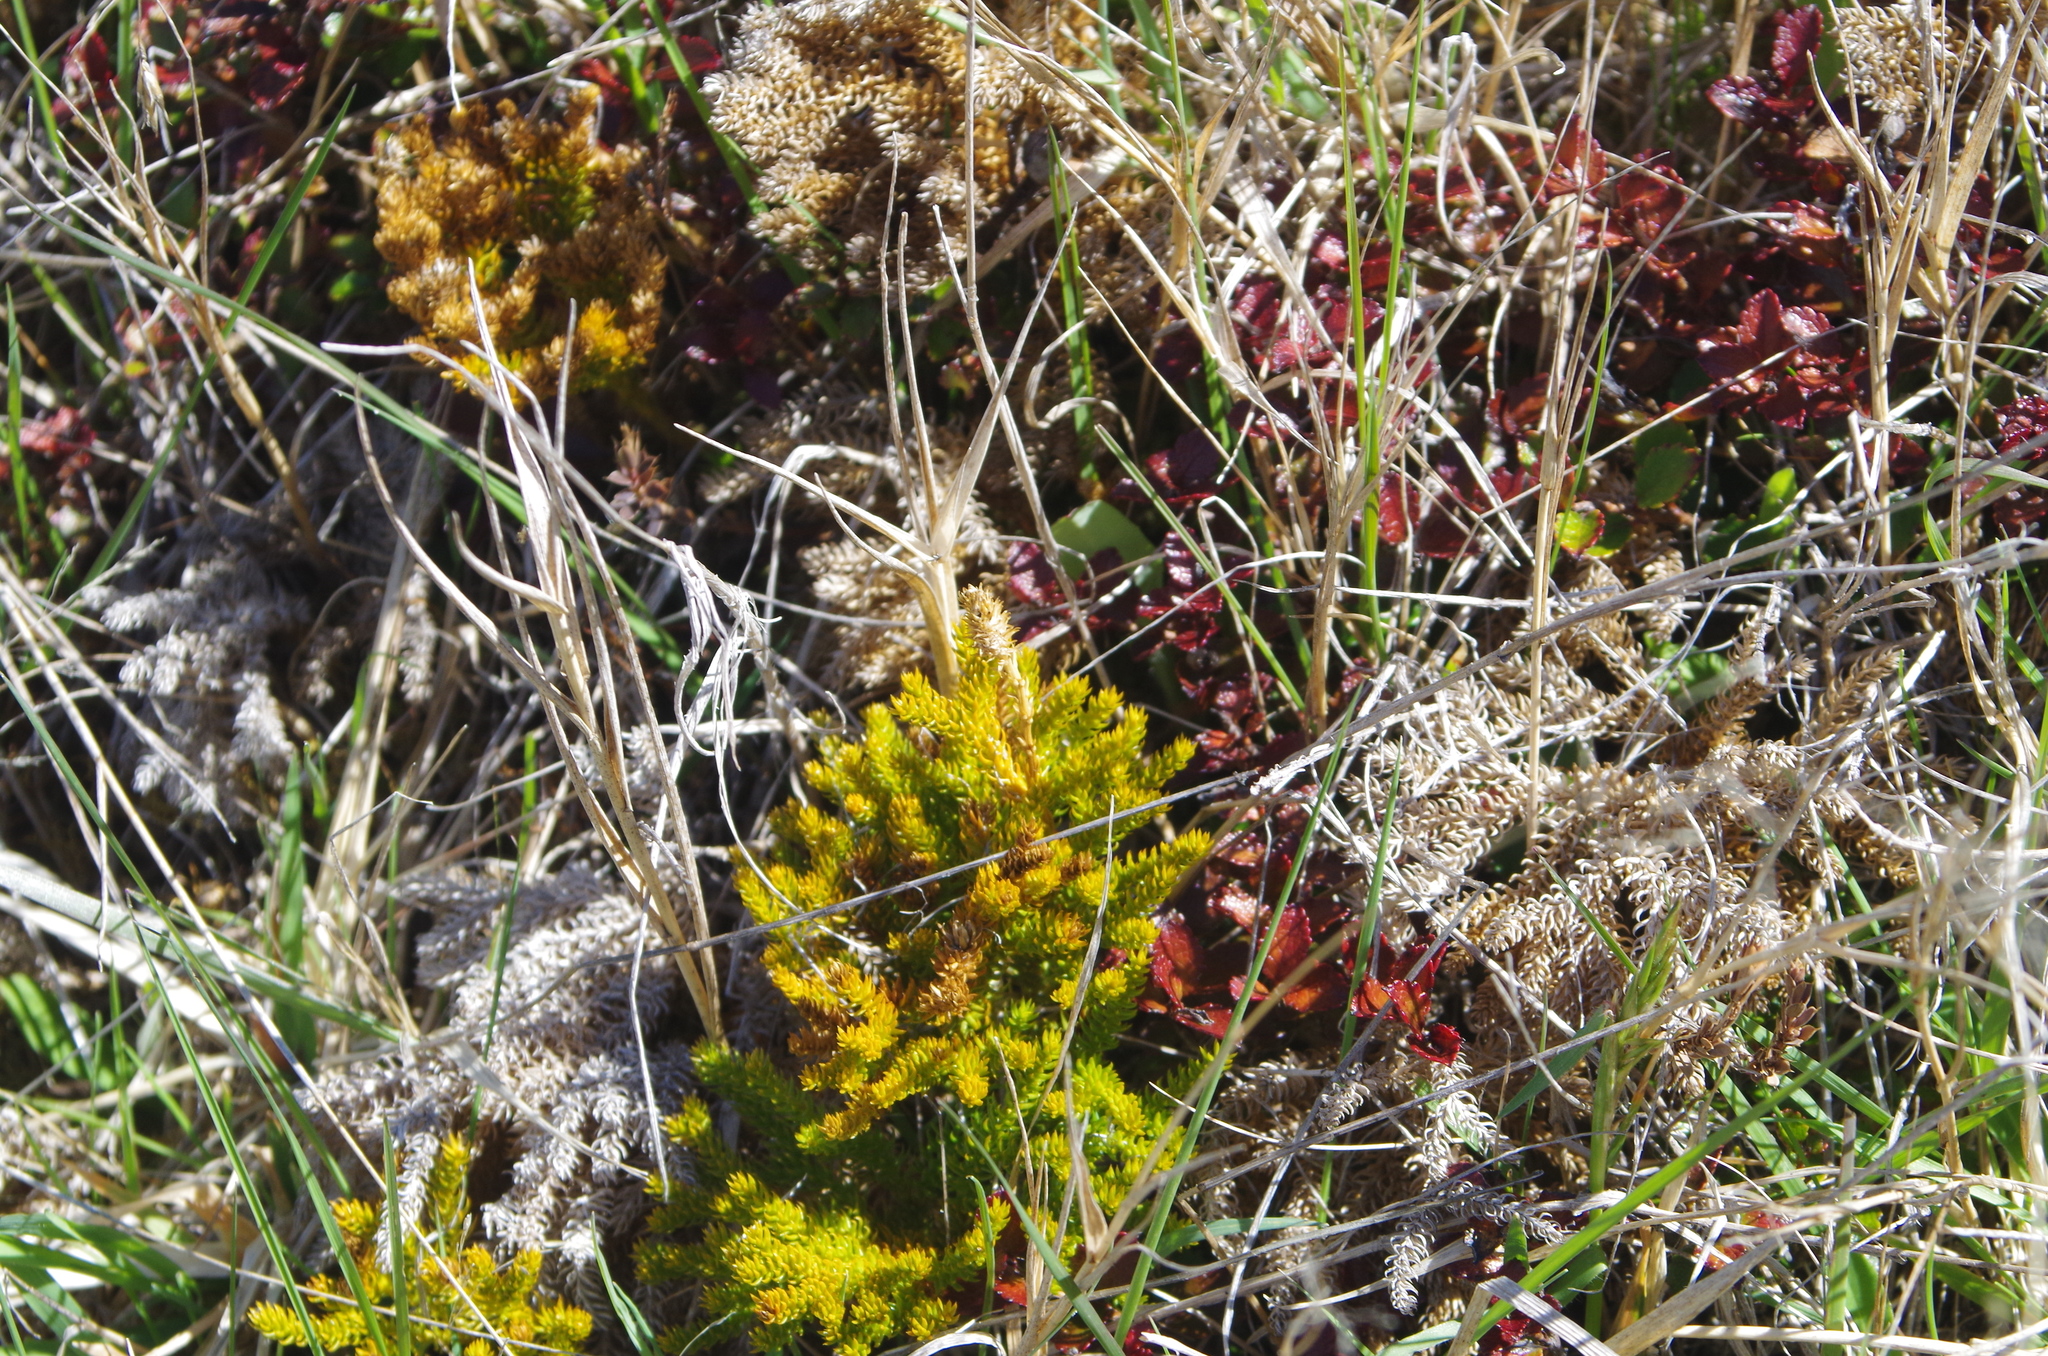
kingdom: Plantae
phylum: Tracheophyta
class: Lycopodiopsida
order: Lycopodiales
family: Lycopodiaceae
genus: Austrolycopodium
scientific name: Austrolycopodium fastigiatum
